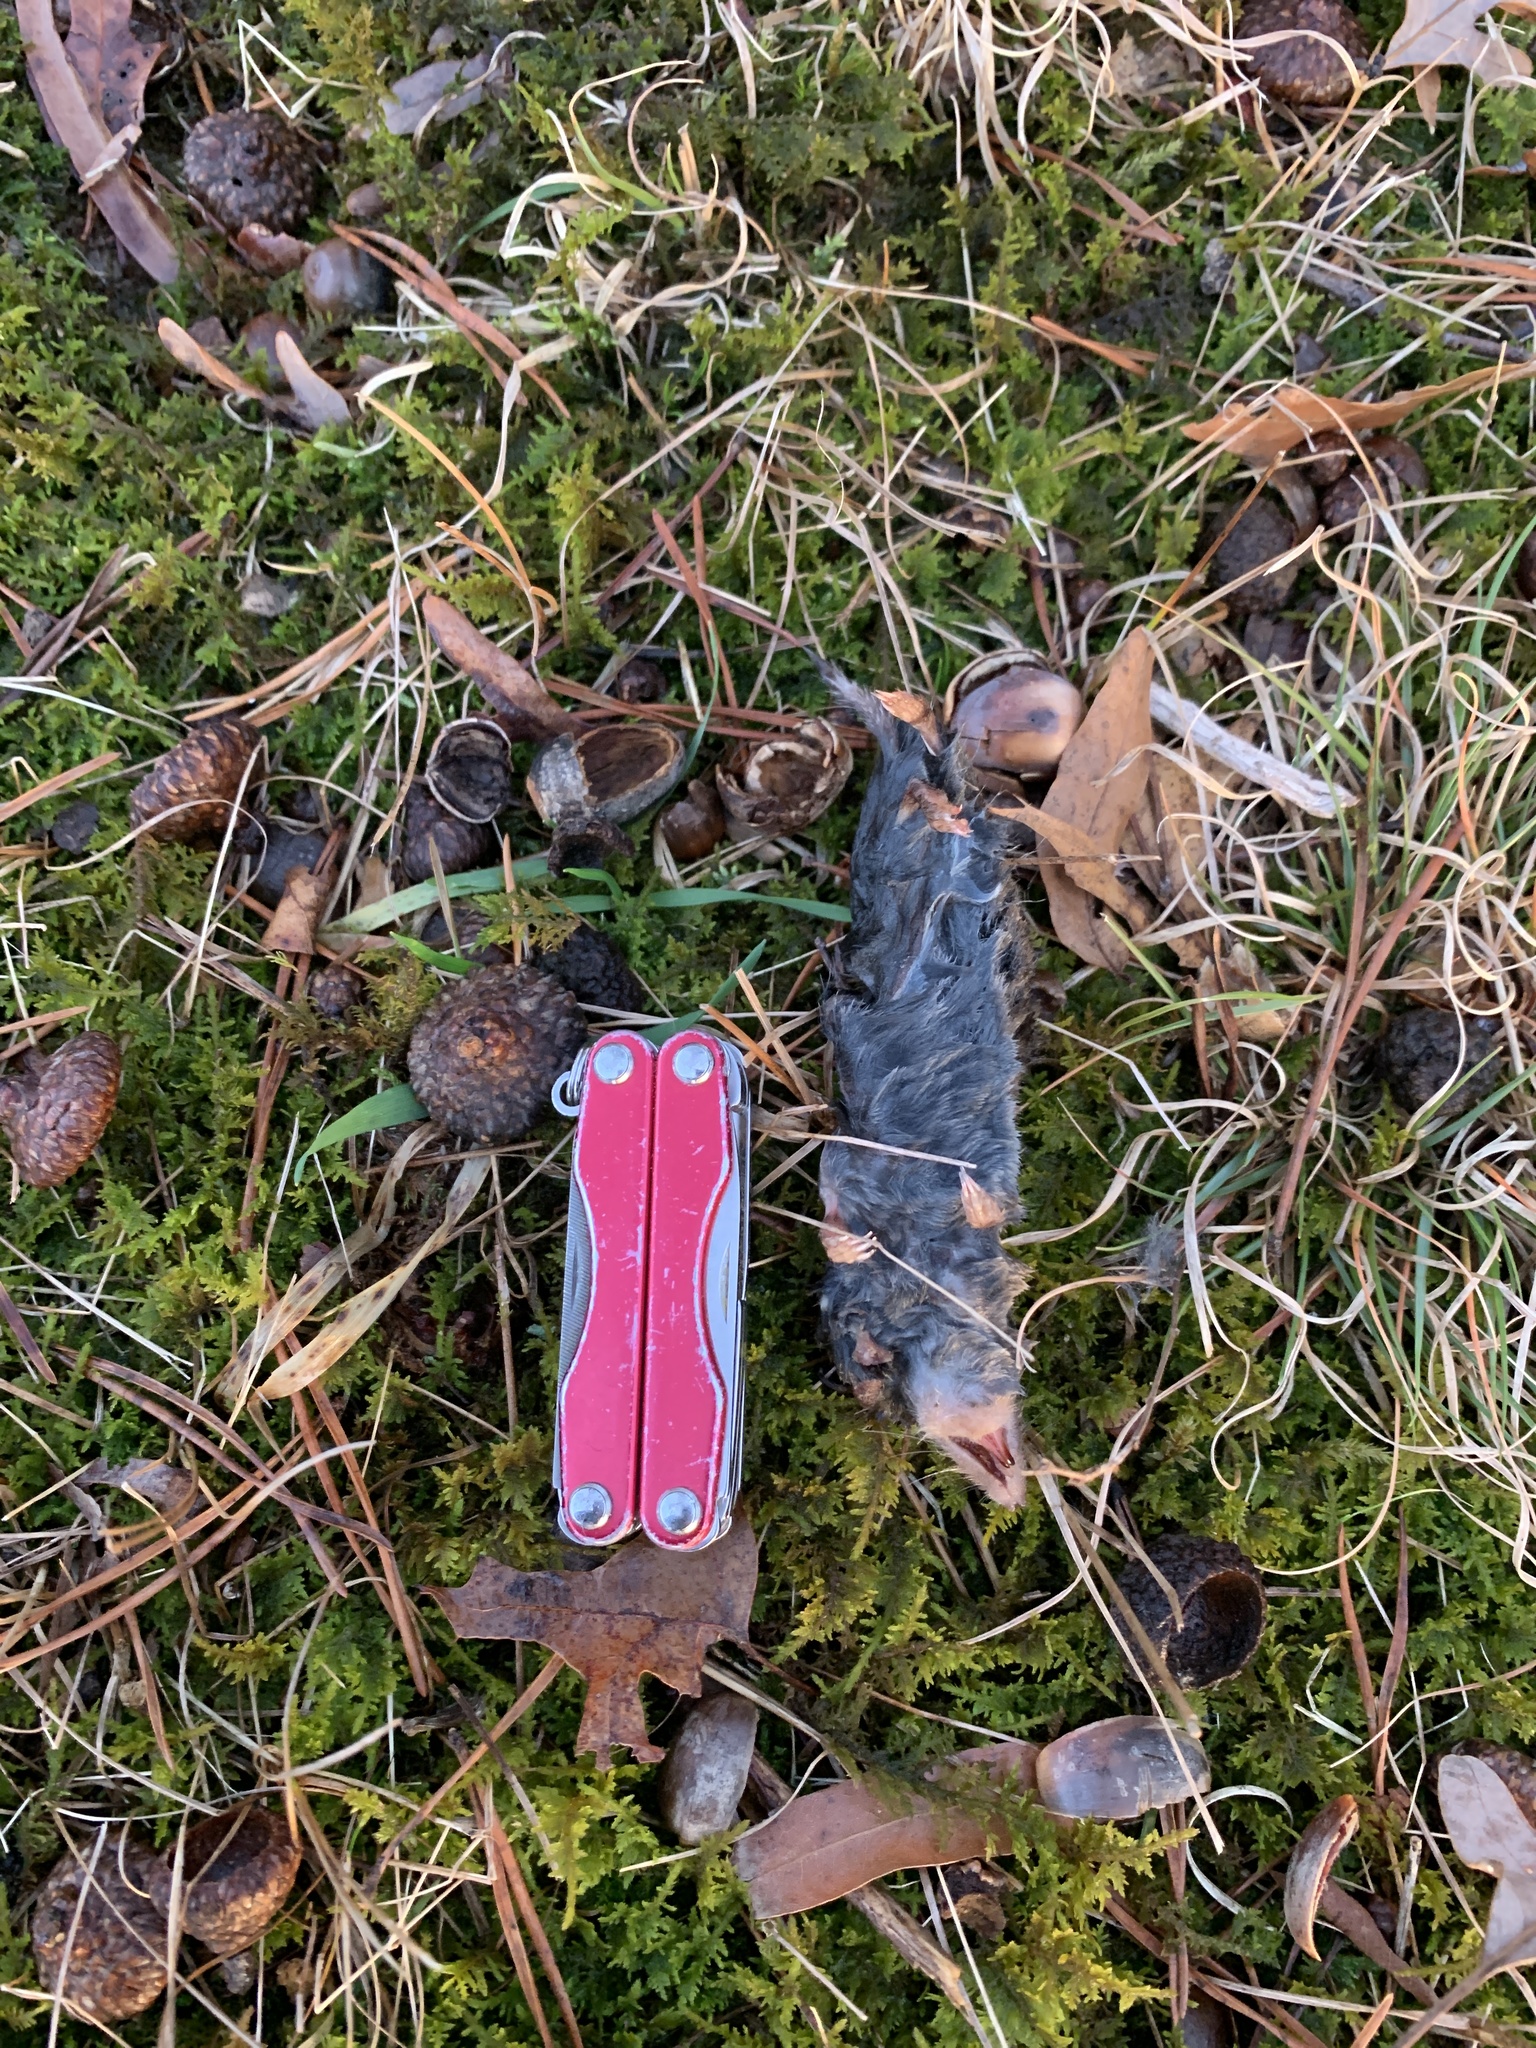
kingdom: Animalia
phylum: Chordata
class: Mammalia
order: Soricomorpha
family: Soricidae
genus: Blarina
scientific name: Blarina brevicauda
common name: Northern short-tailed shrew
